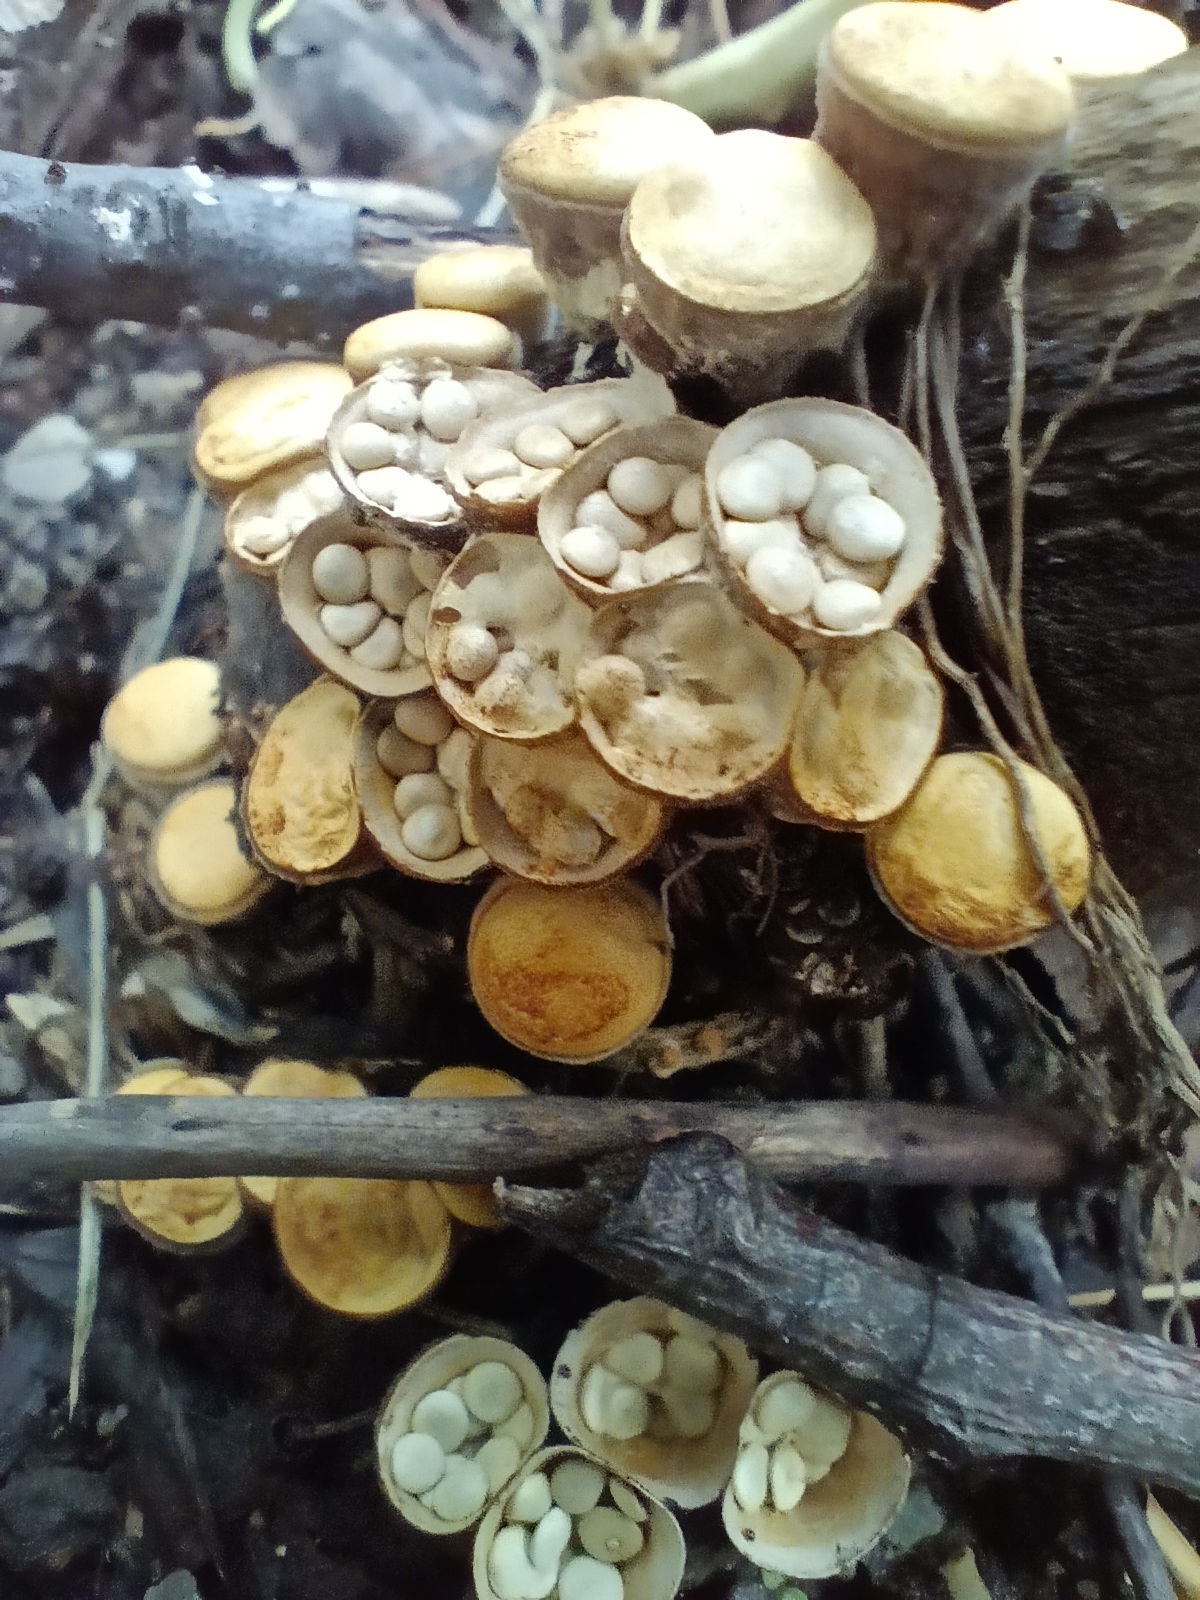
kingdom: Fungi
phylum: Basidiomycota
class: Agaricomycetes
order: Agaricales
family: Nidulariaceae
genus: Crucibulum
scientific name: Crucibulum laeve
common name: Common bird's nest
